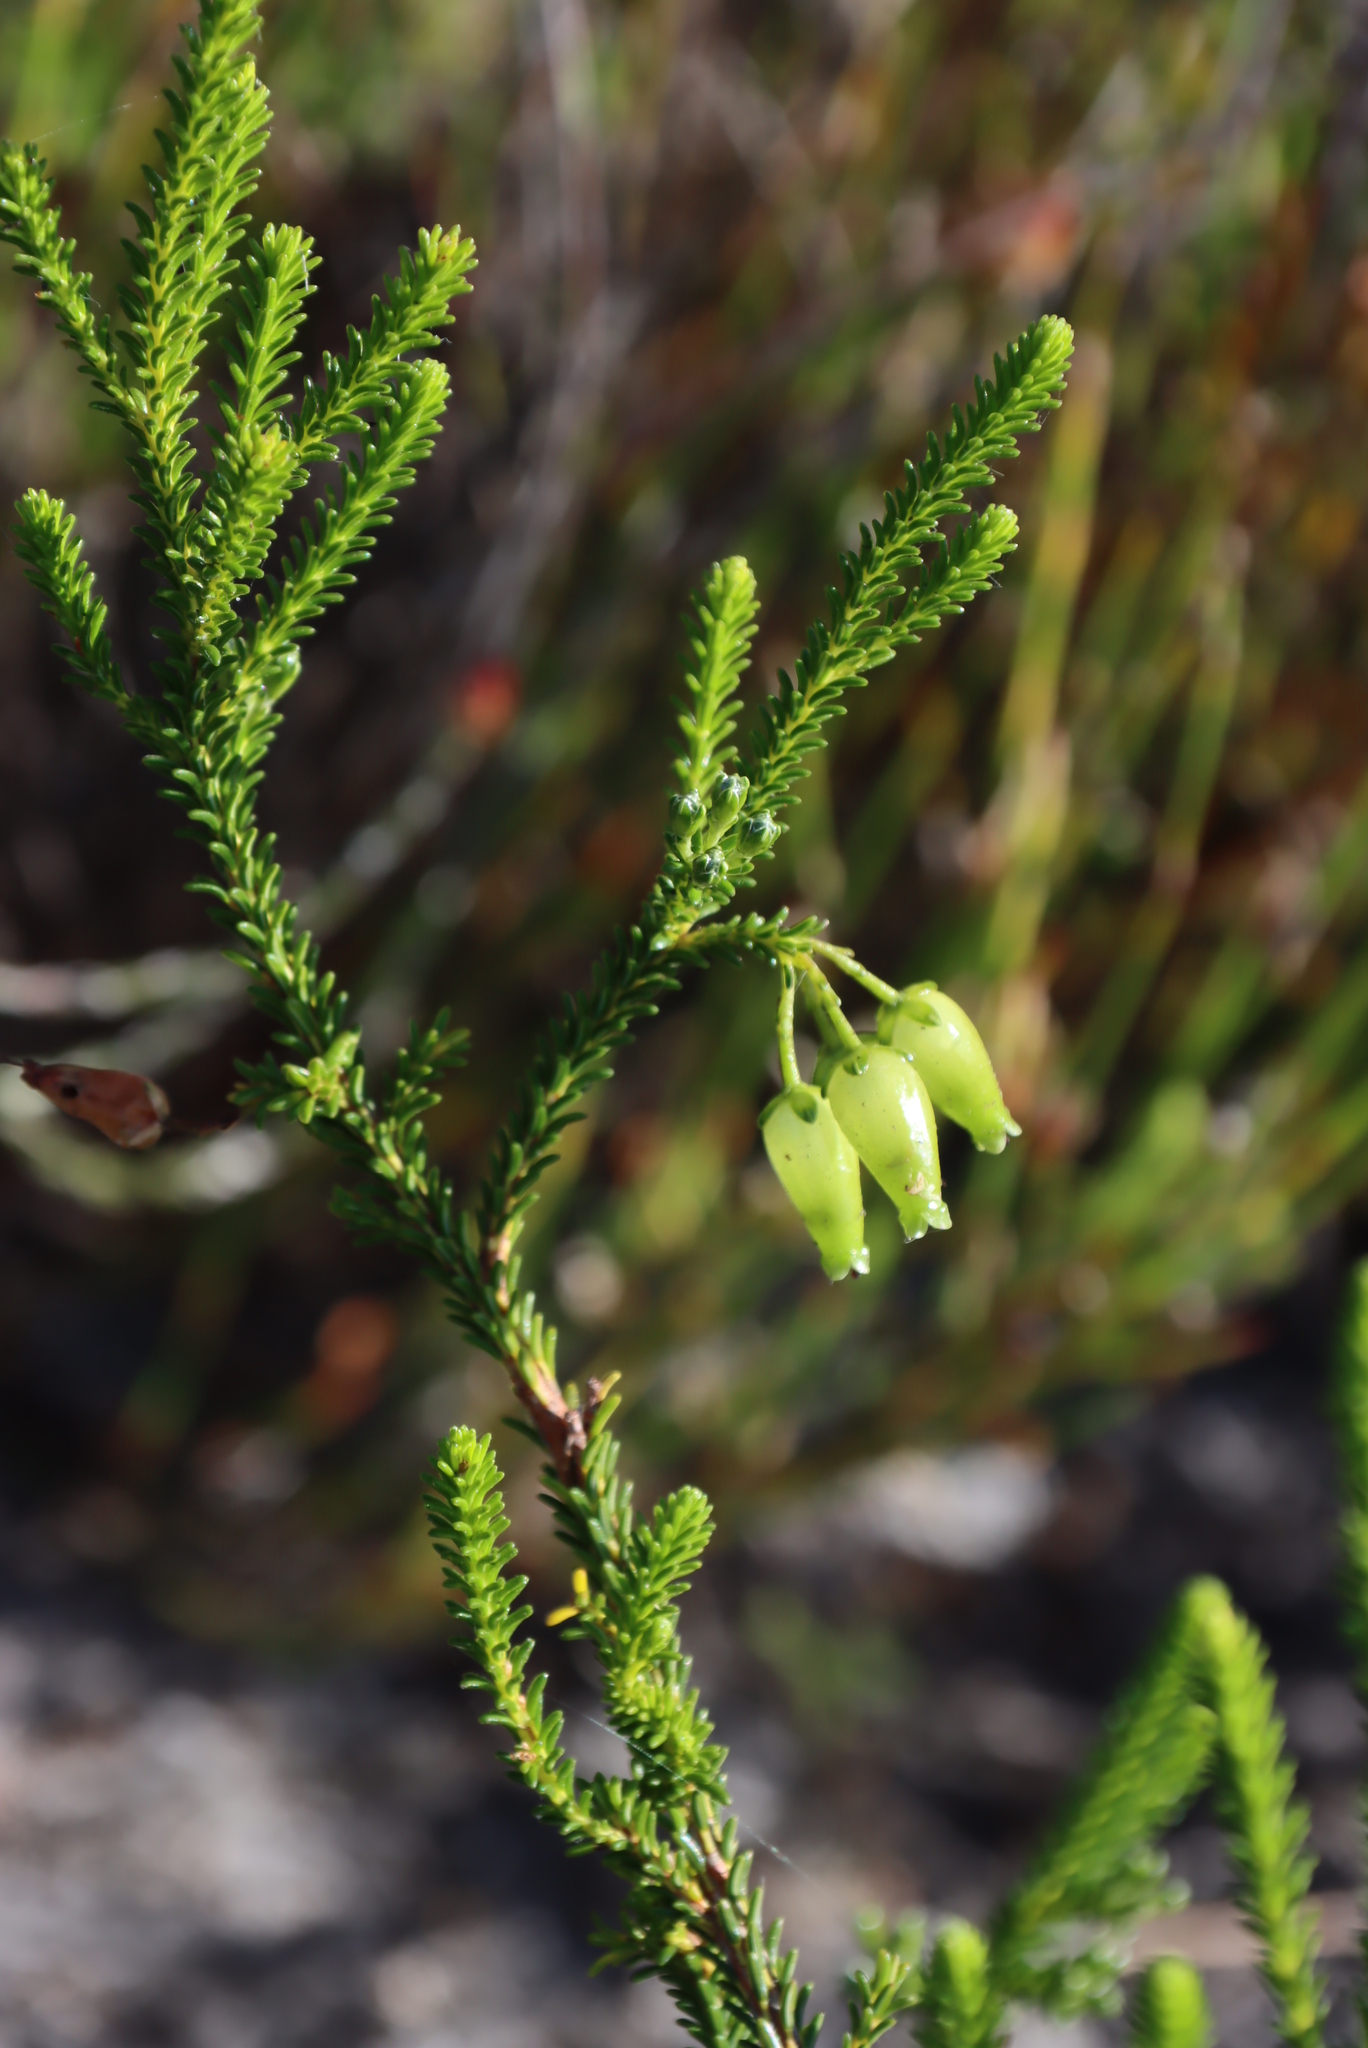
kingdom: Plantae
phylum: Tracheophyta
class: Magnoliopsida
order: Ericales
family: Ericaceae
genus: Erica
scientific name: Erica urna-viridis
